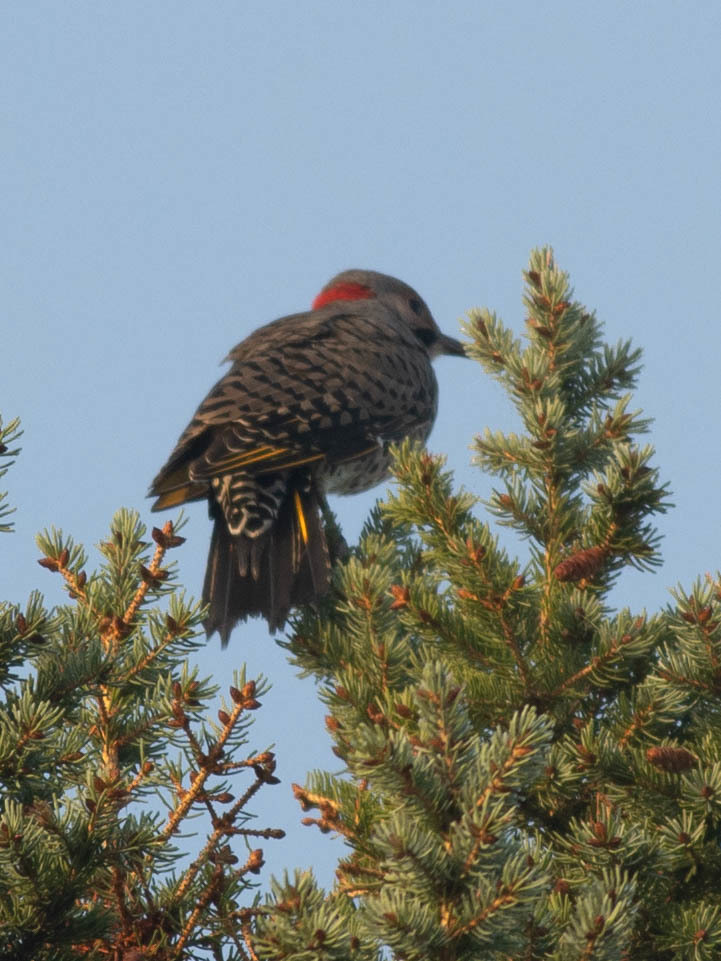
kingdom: Animalia
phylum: Chordata
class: Aves
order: Piciformes
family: Picidae
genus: Colaptes
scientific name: Colaptes auratus
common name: Northern flicker
